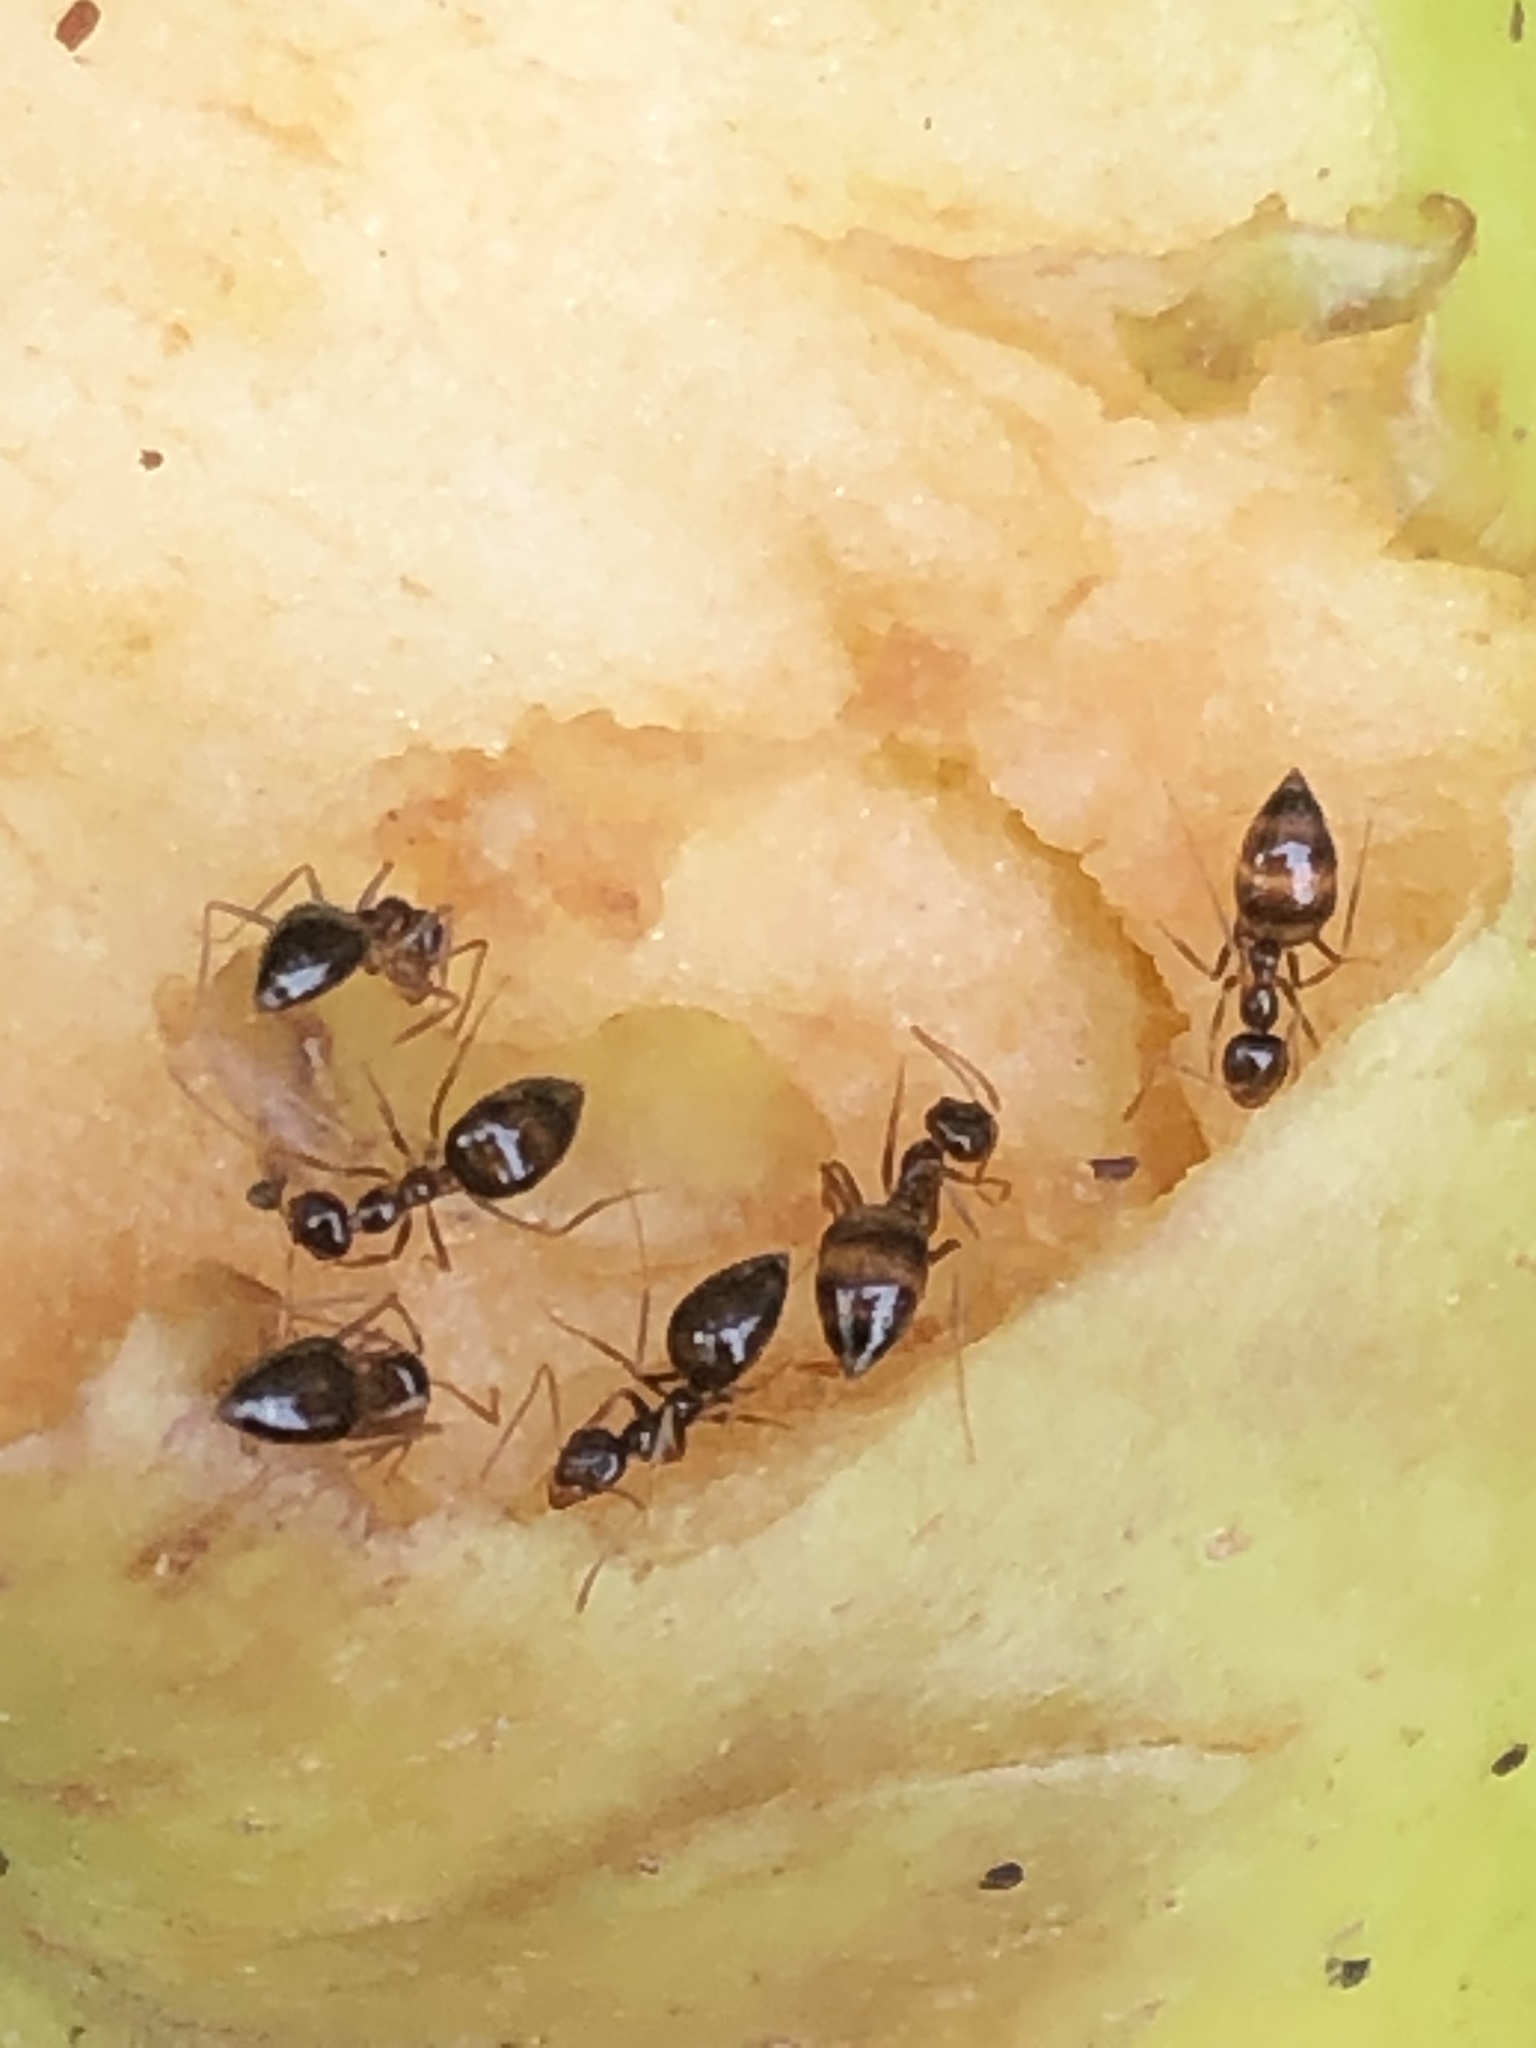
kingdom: Animalia
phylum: Arthropoda
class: Insecta
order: Hymenoptera
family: Formicidae
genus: Prenolepis
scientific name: Prenolepis imparis
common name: Small honey ant
